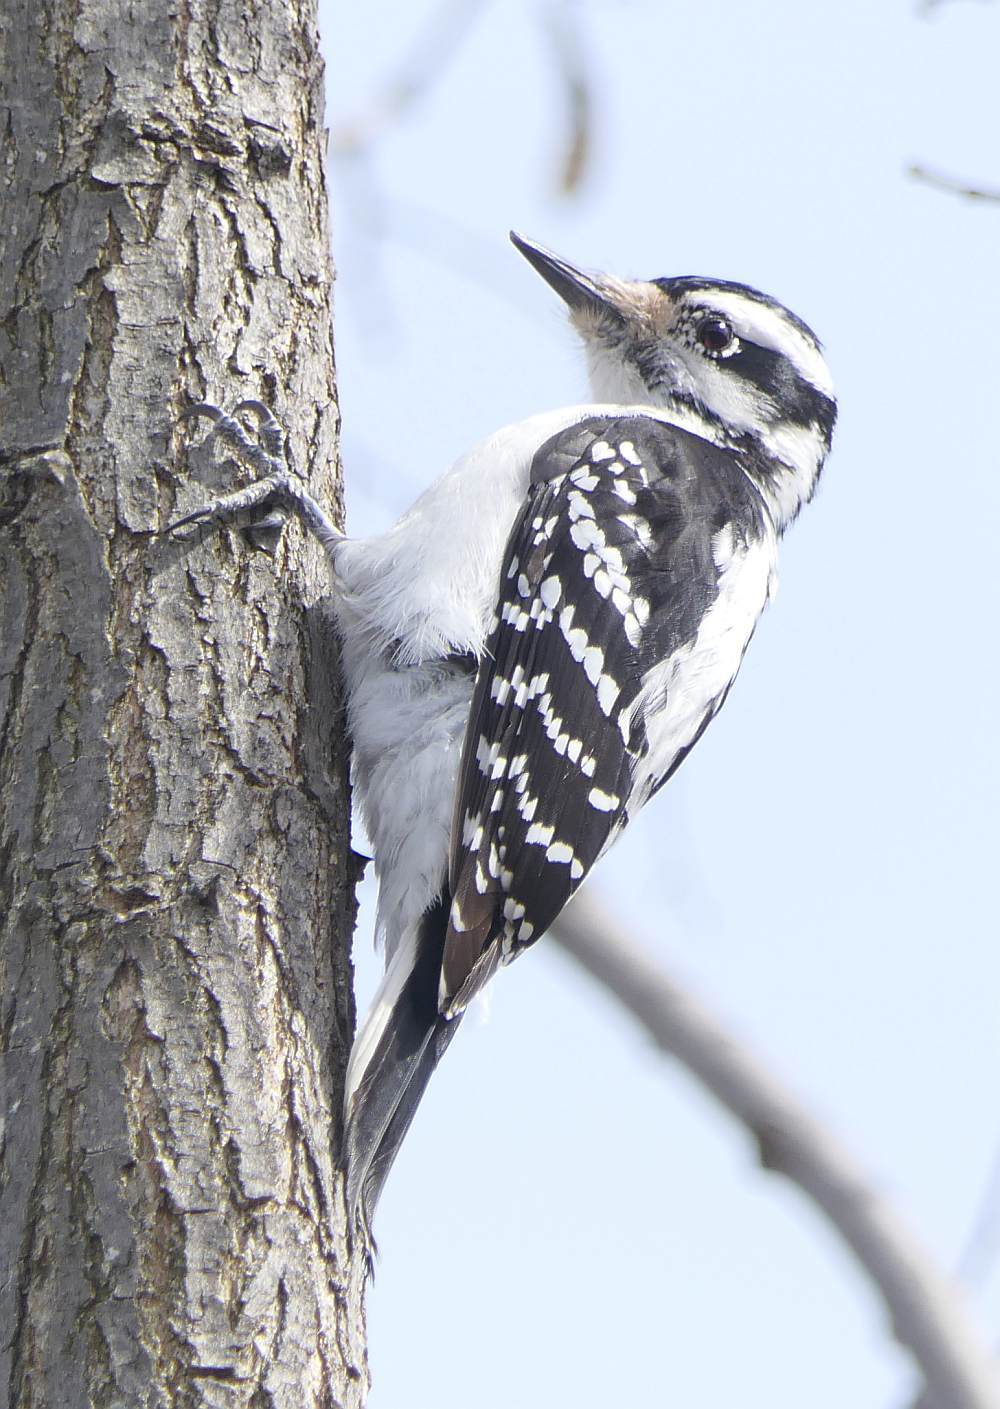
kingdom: Animalia
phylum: Chordata
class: Aves
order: Piciformes
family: Picidae
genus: Leuconotopicus
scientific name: Leuconotopicus villosus
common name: Hairy woodpecker
